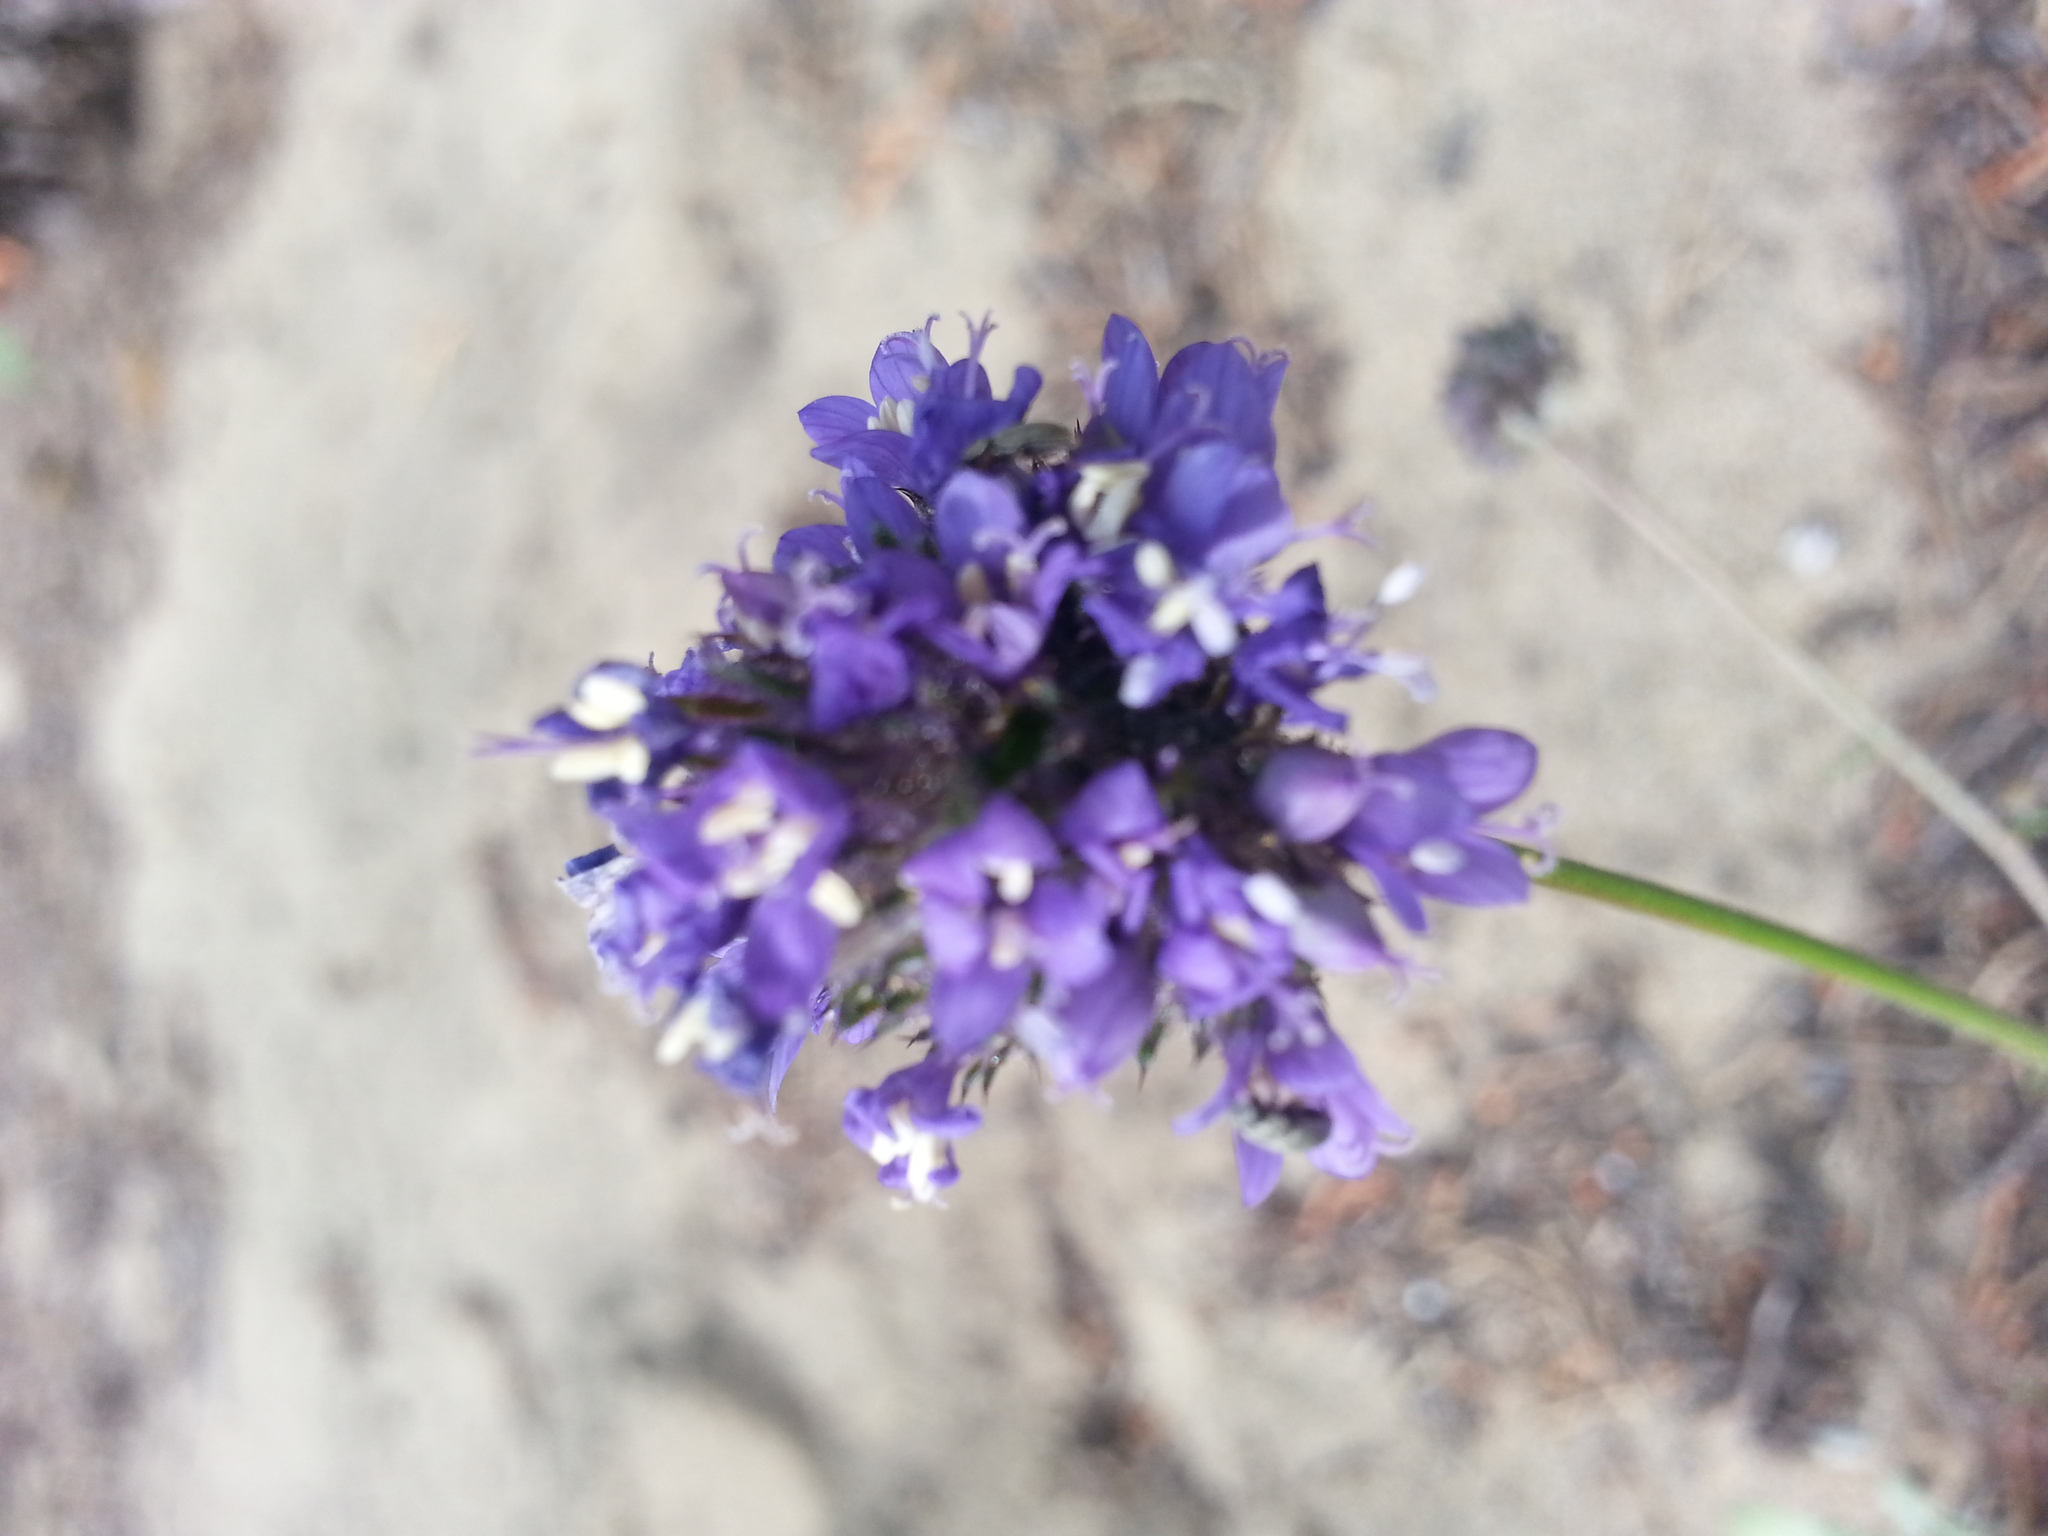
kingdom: Plantae
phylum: Tracheophyta
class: Magnoliopsida
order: Ericales
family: Polemoniaceae
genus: Gilia
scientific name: Gilia capitata
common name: Bluehead gilia
